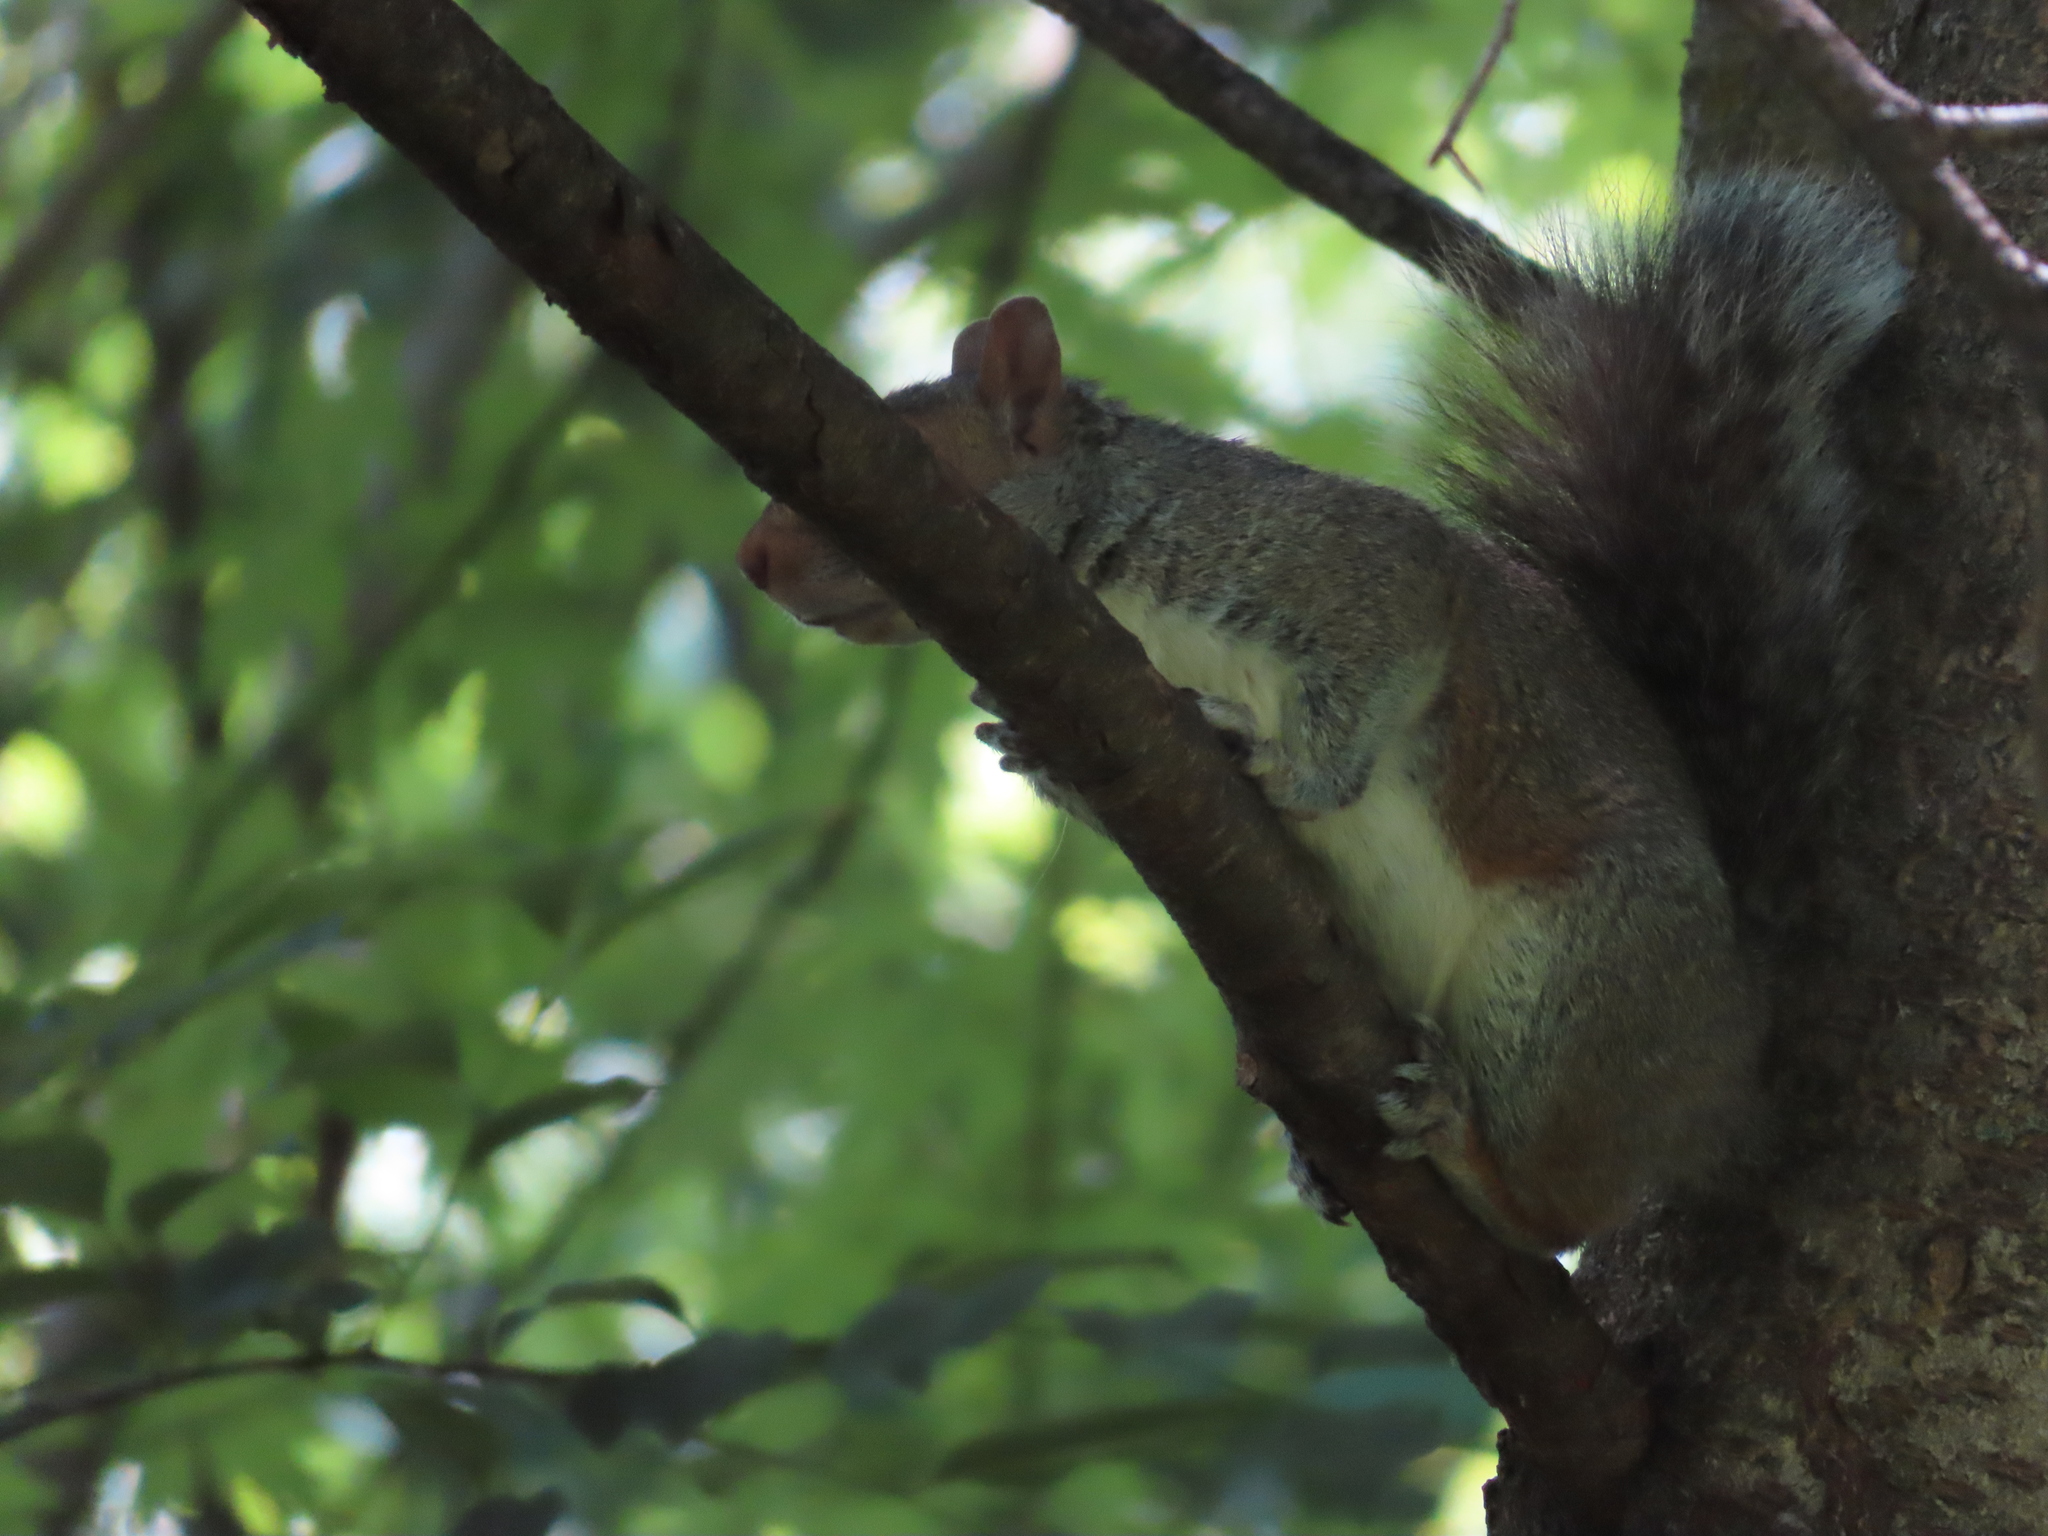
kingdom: Animalia
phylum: Chordata
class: Mammalia
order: Rodentia
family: Sciuridae
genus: Sciurus
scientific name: Sciurus carolinensis
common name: Eastern gray squirrel
